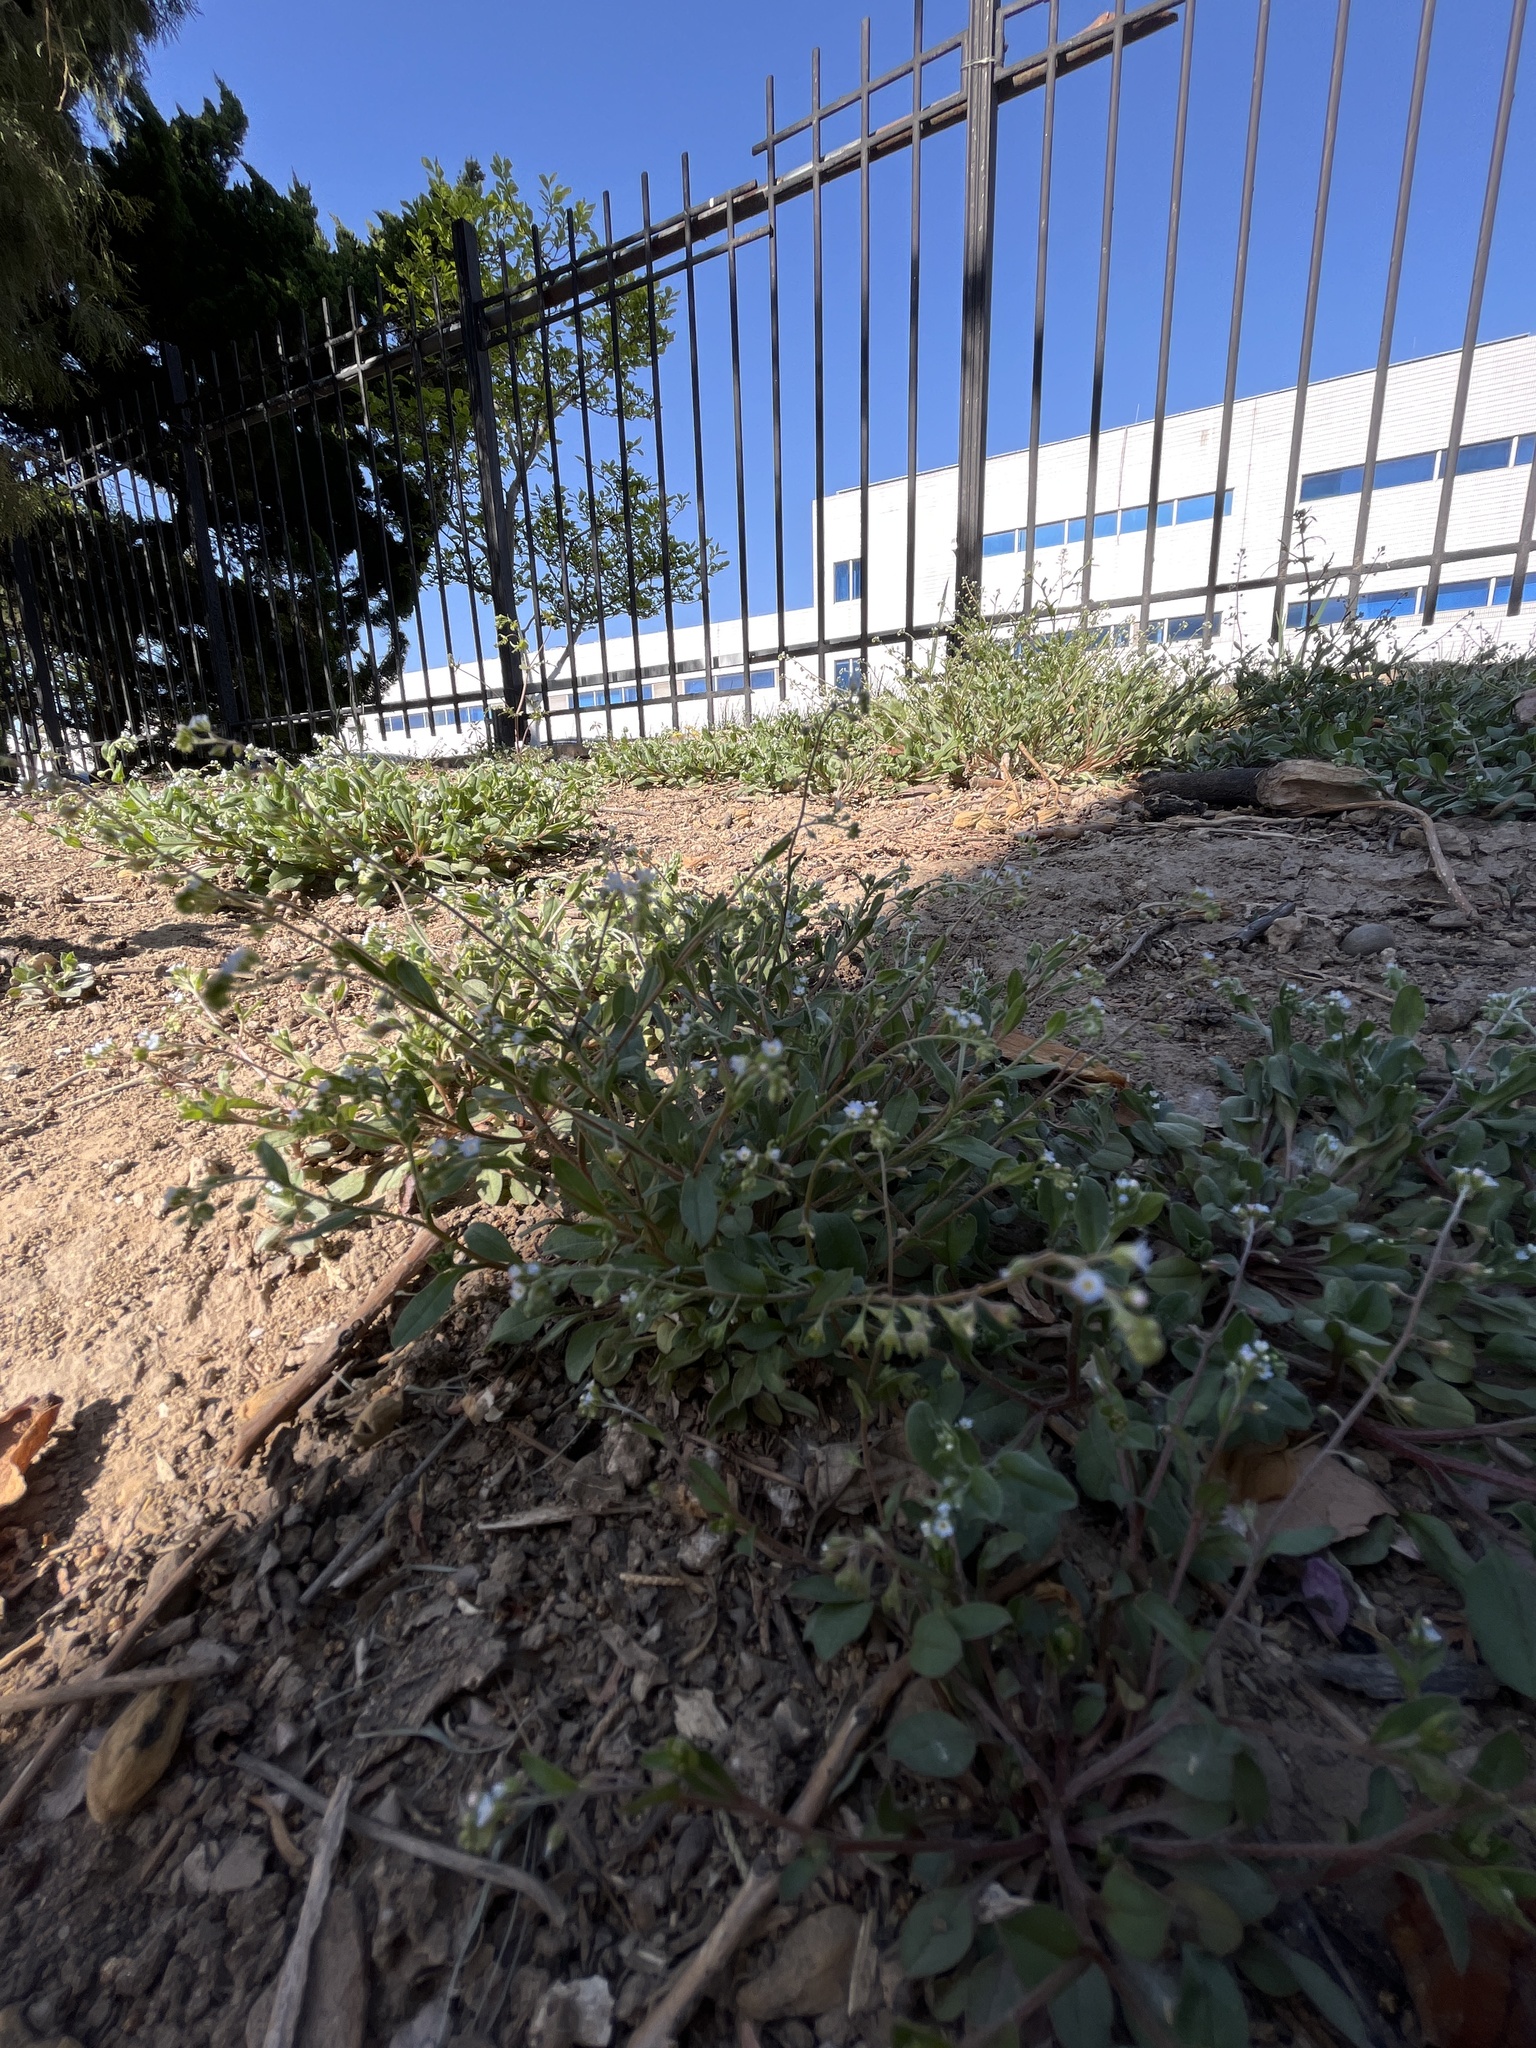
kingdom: Plantae
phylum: Tracheophyta
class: Magnoliopsida
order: Boraginales
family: Boraginaceae
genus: Trigonotis
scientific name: Trigonotis peduncularis
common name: Cucumber herb
